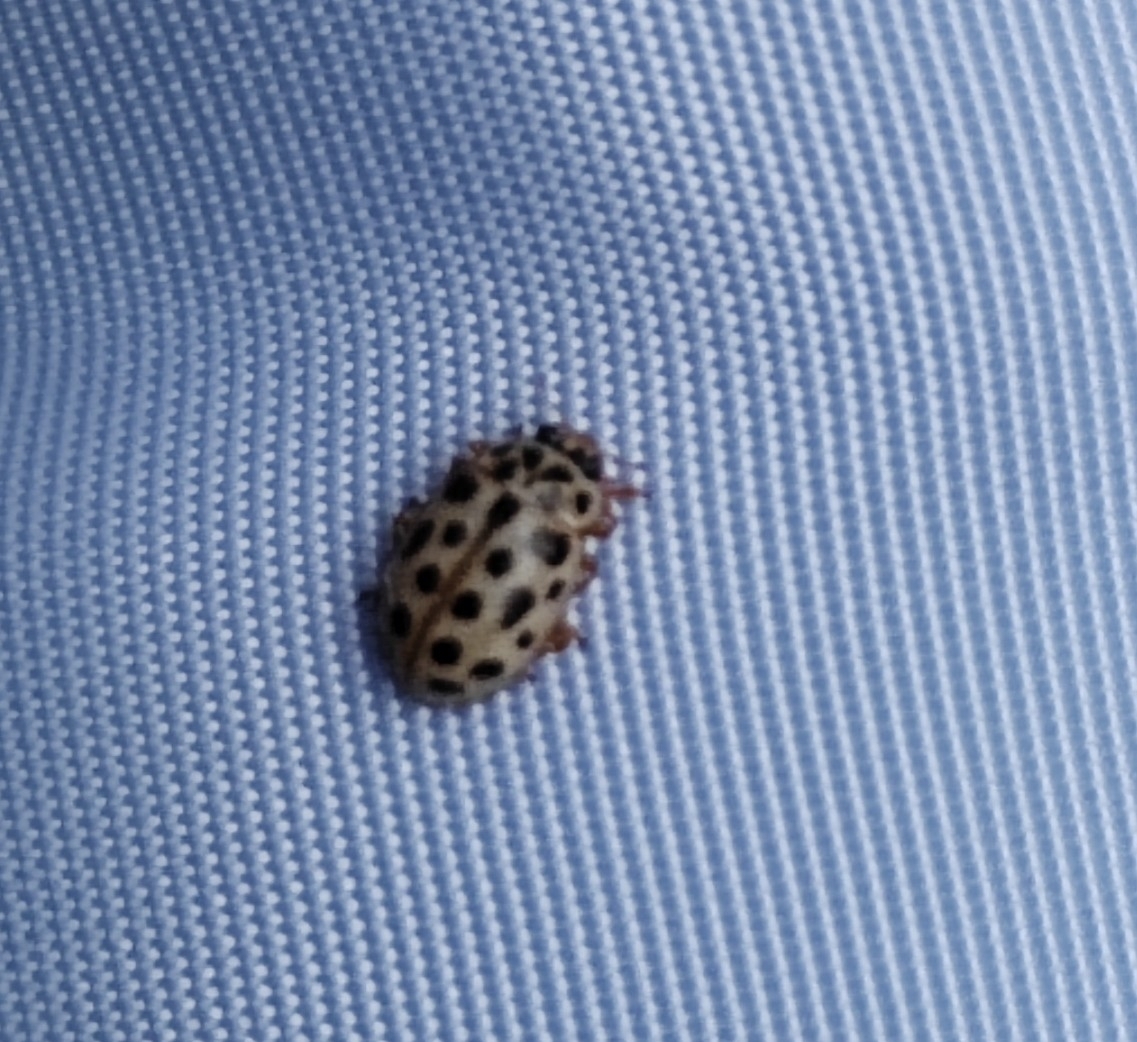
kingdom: Animalia
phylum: Arthropoda
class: Insecta
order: Coleoptera
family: Coccinellidae
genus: Anisosticta
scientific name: Anisosticta novemdecimpunctata
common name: Water ladybird
